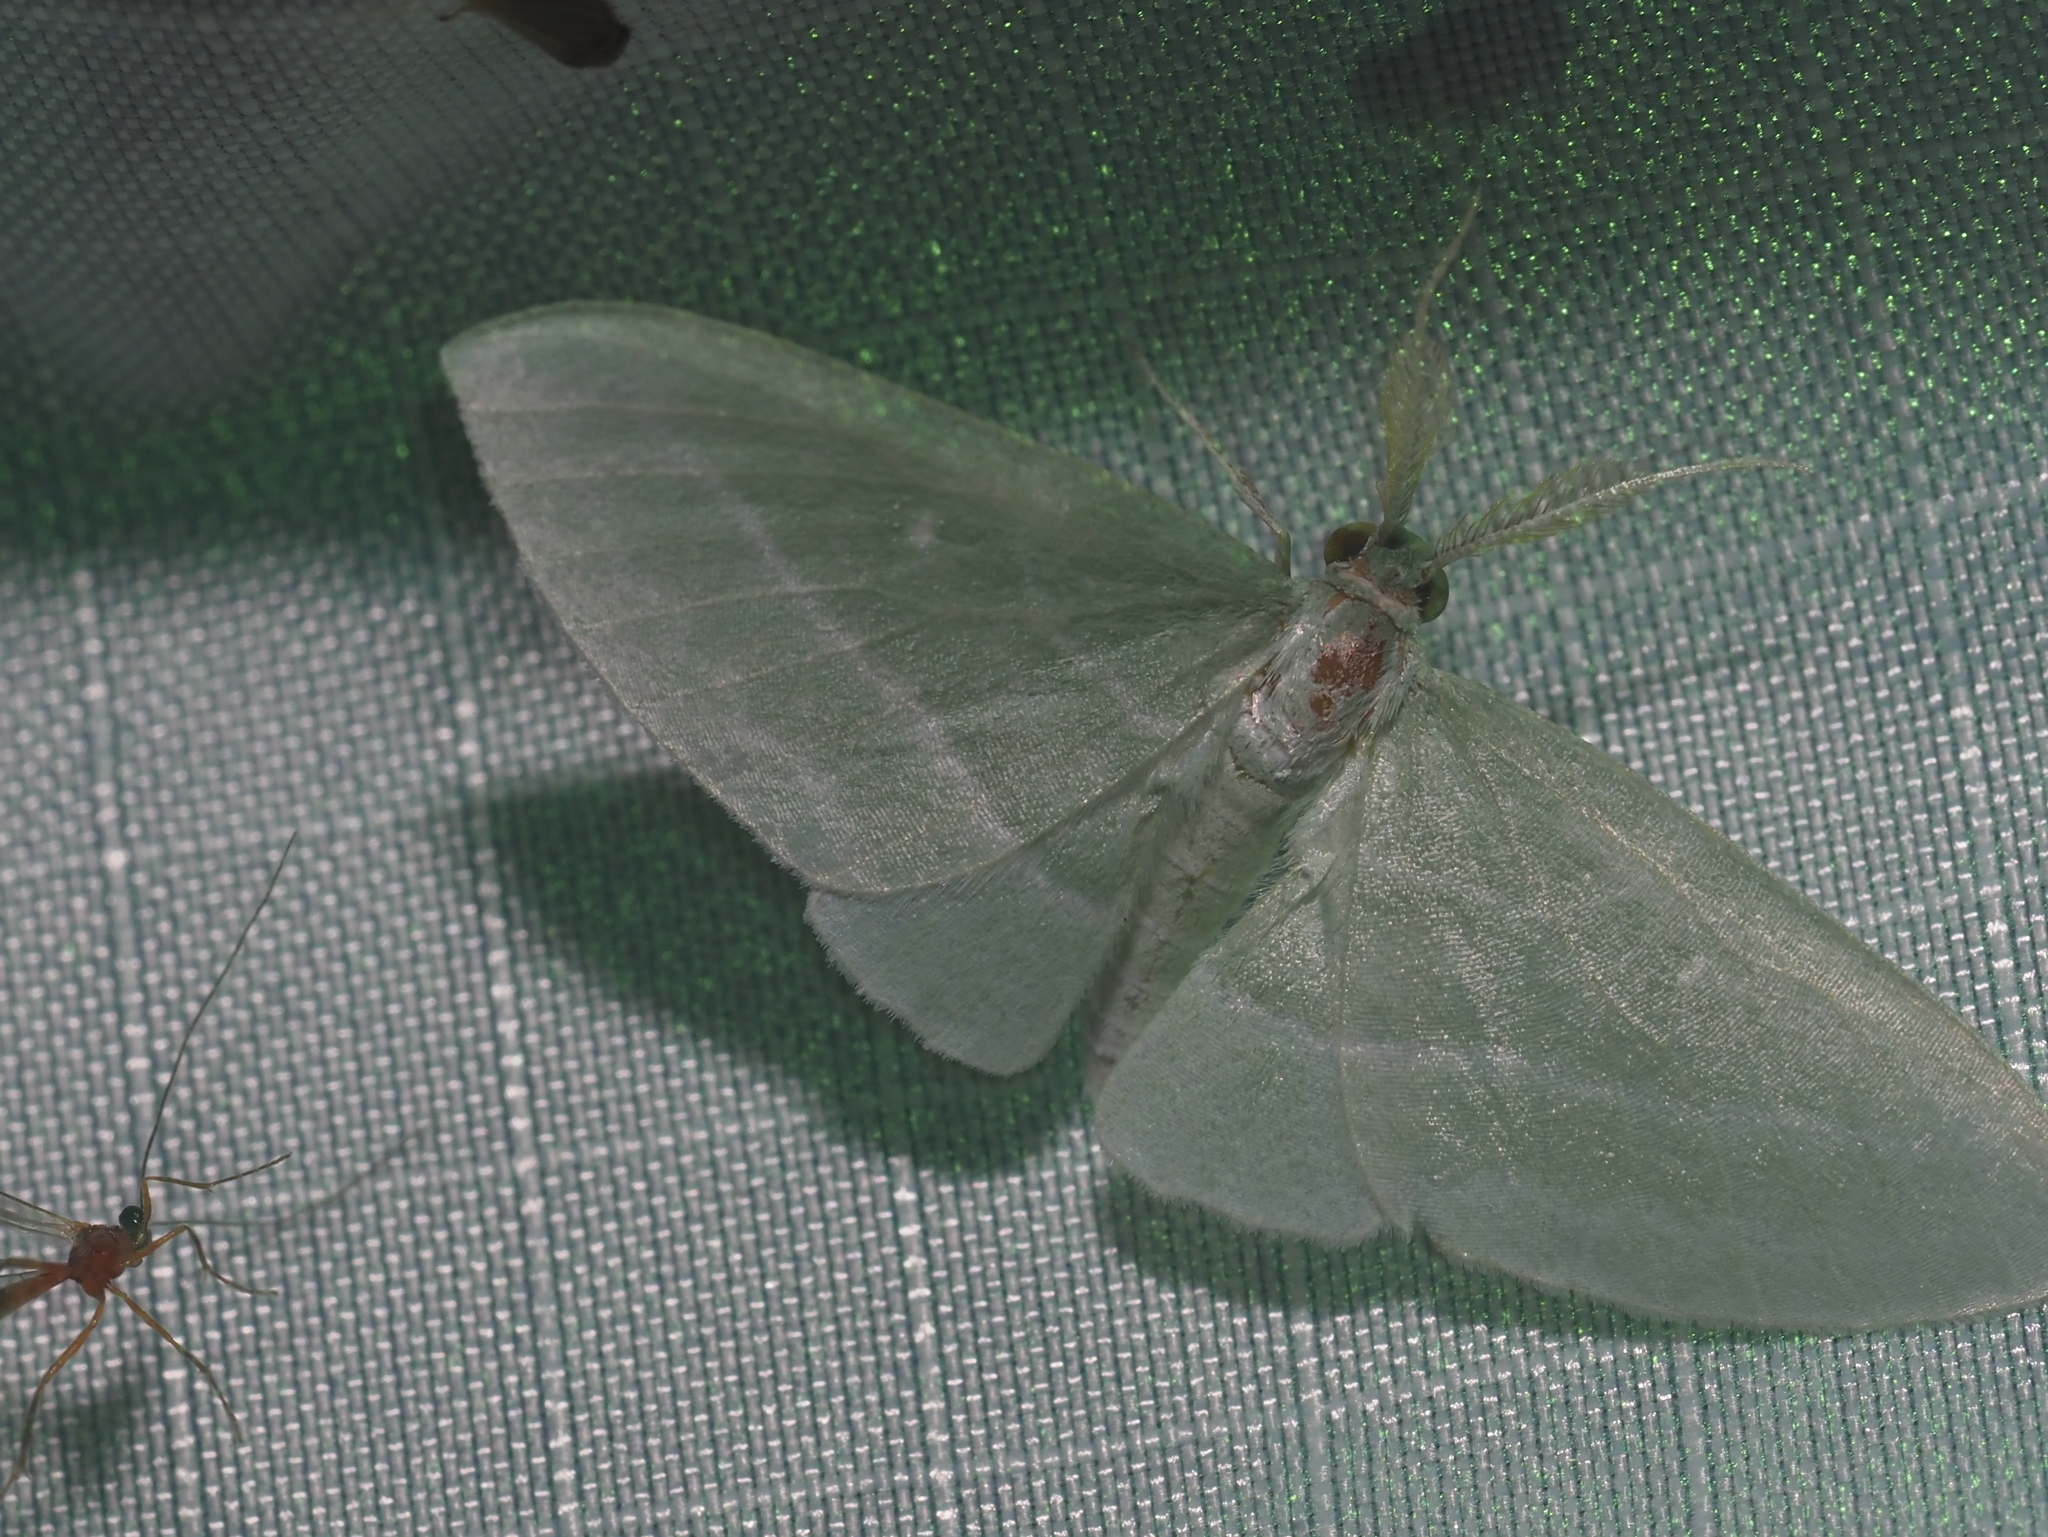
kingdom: Animalia
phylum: Arthropoda
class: Insecta
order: Lepidoptera
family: Geometridae
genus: Dyspteris
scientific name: Dyspteris abortivaria
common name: Bad-wing
